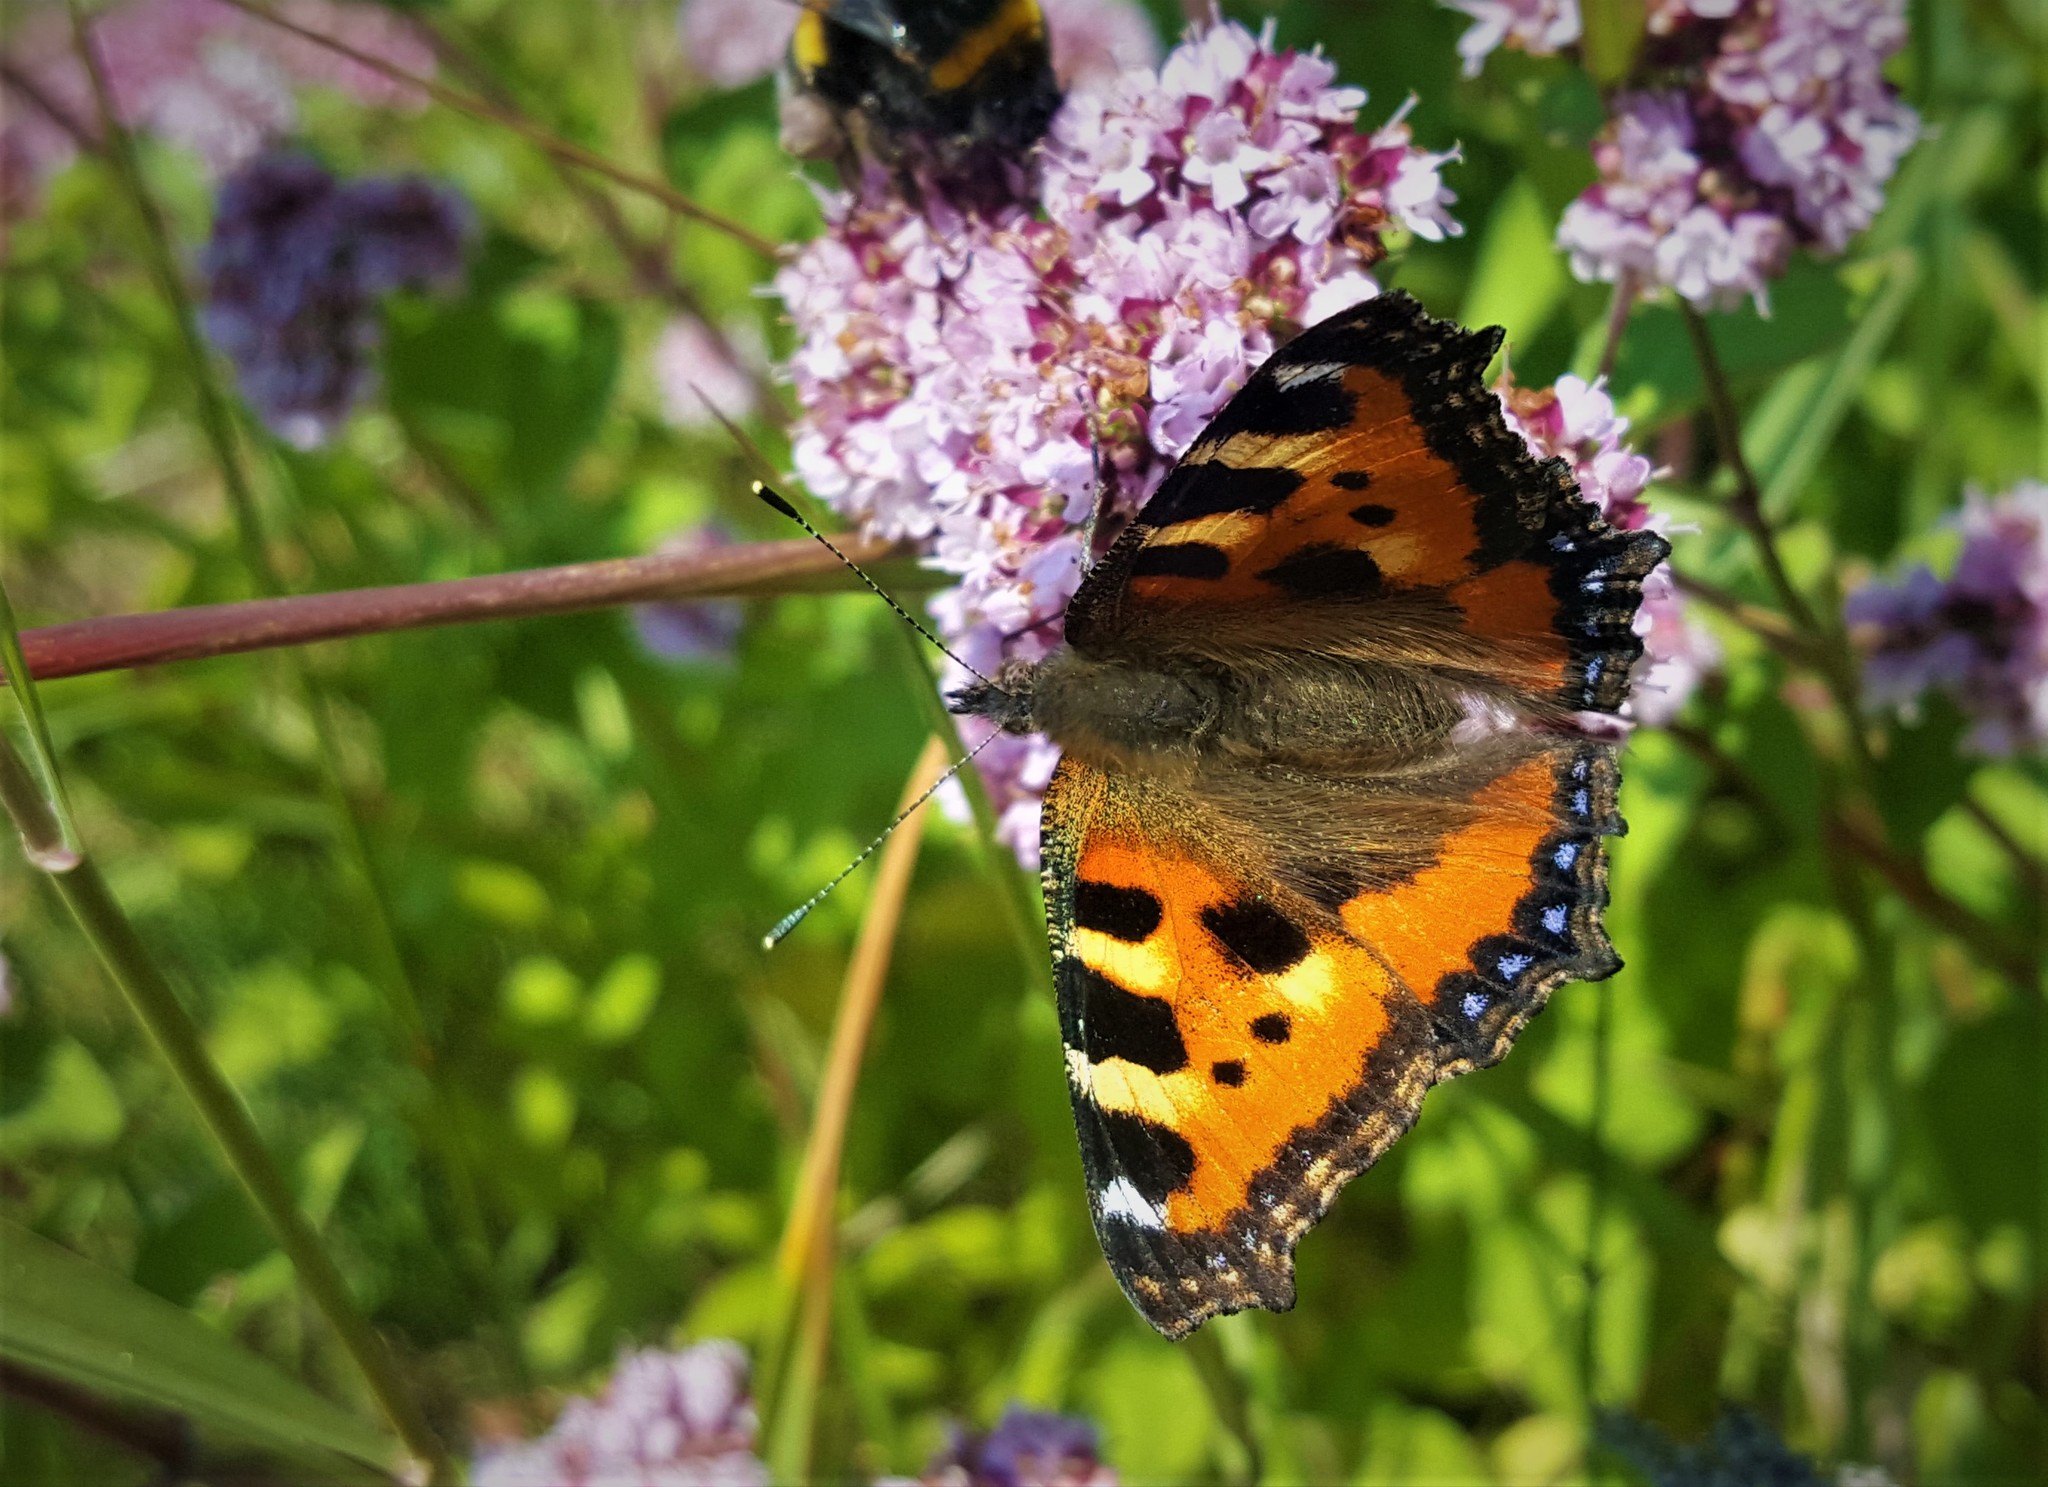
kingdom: Animalia
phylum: Arthropoda
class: Insecta
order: Lepidoptera
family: Nymphalidae
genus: Aglais
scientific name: Aglais urticae
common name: Small tortoiseshell
